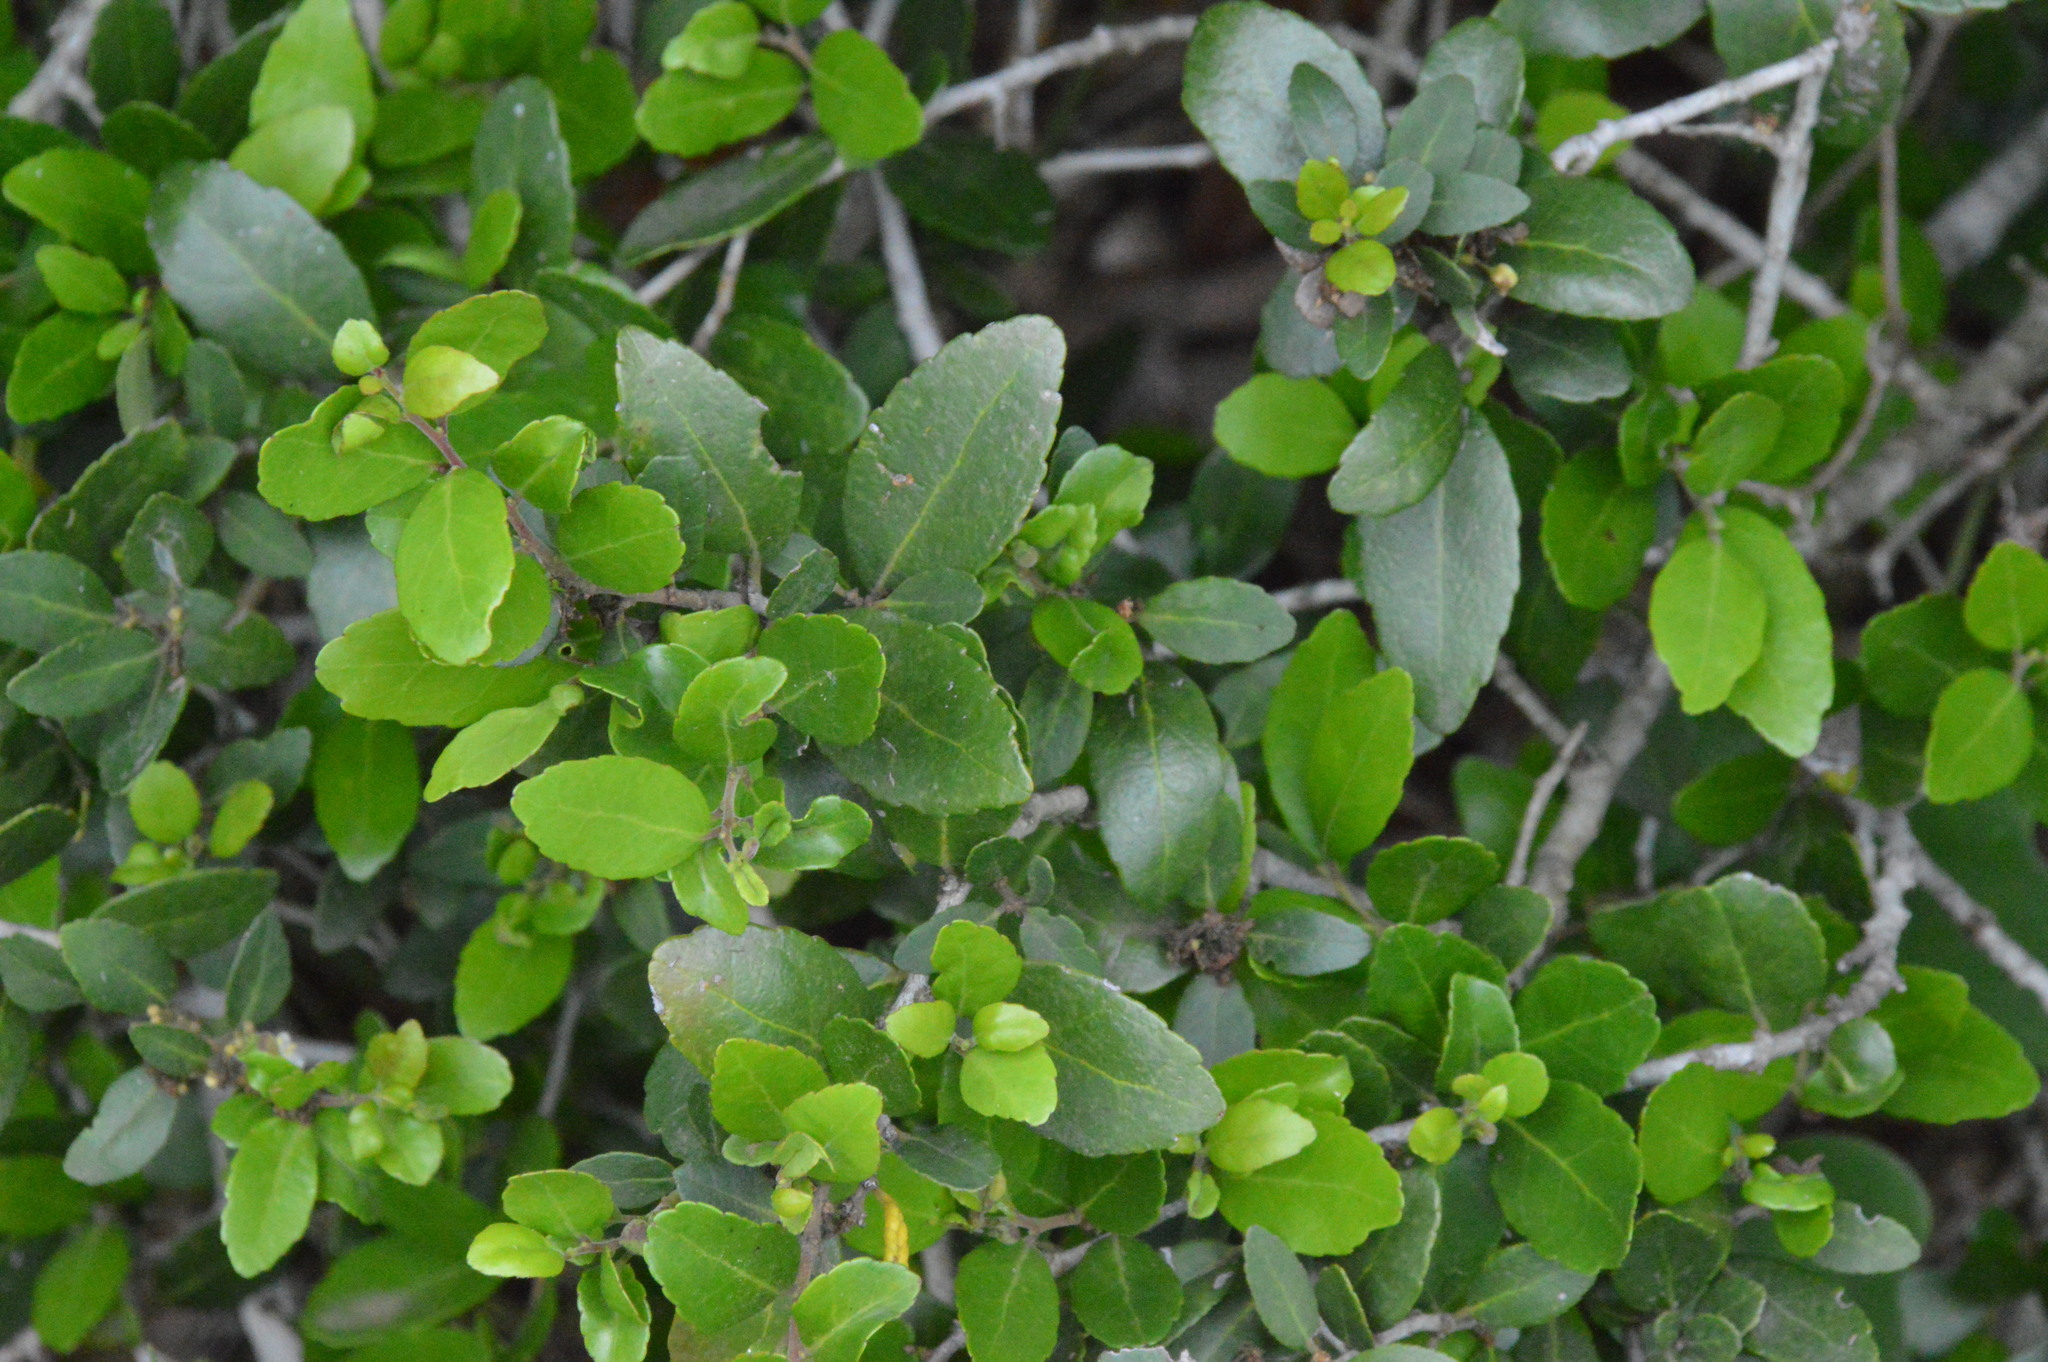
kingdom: Plantae
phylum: Tracheophyta
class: Magnoliopsida
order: Aquifoliales
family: Aquifoliaceae
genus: Ilex
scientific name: Ilex vomitoria
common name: Yaupon holly
